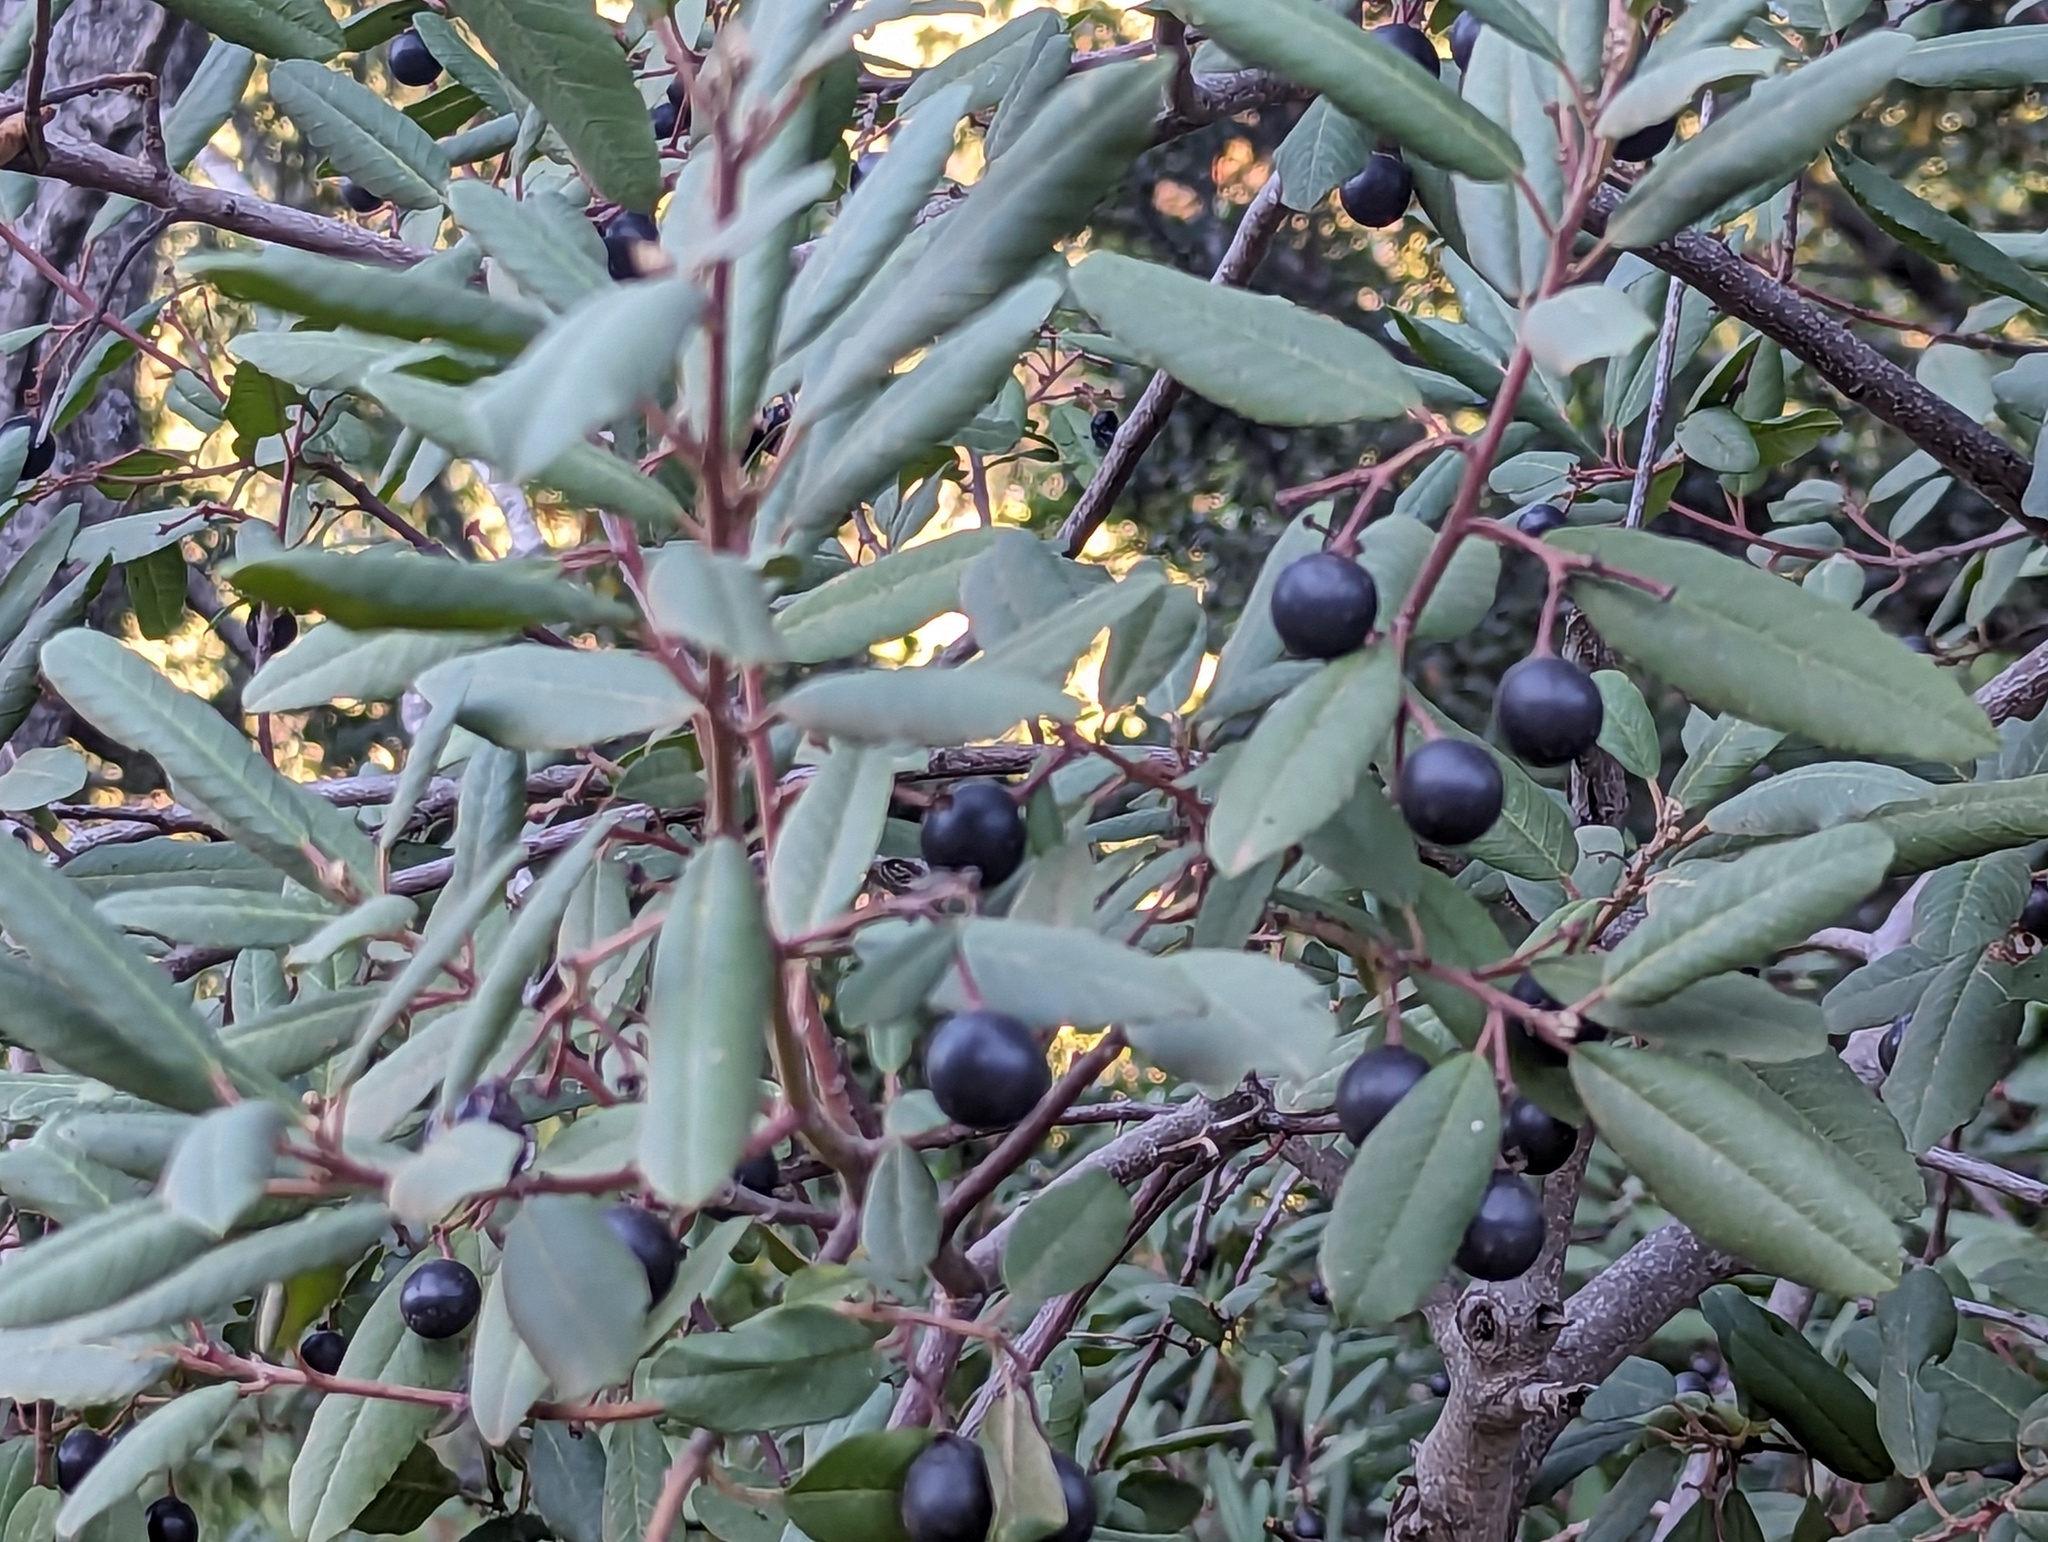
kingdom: Plantae
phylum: Tracheophyta
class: Magnoliopsida
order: Rosales
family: Rhamnaceae
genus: Frangula
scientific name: Frangula californica
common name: California buckthorn
